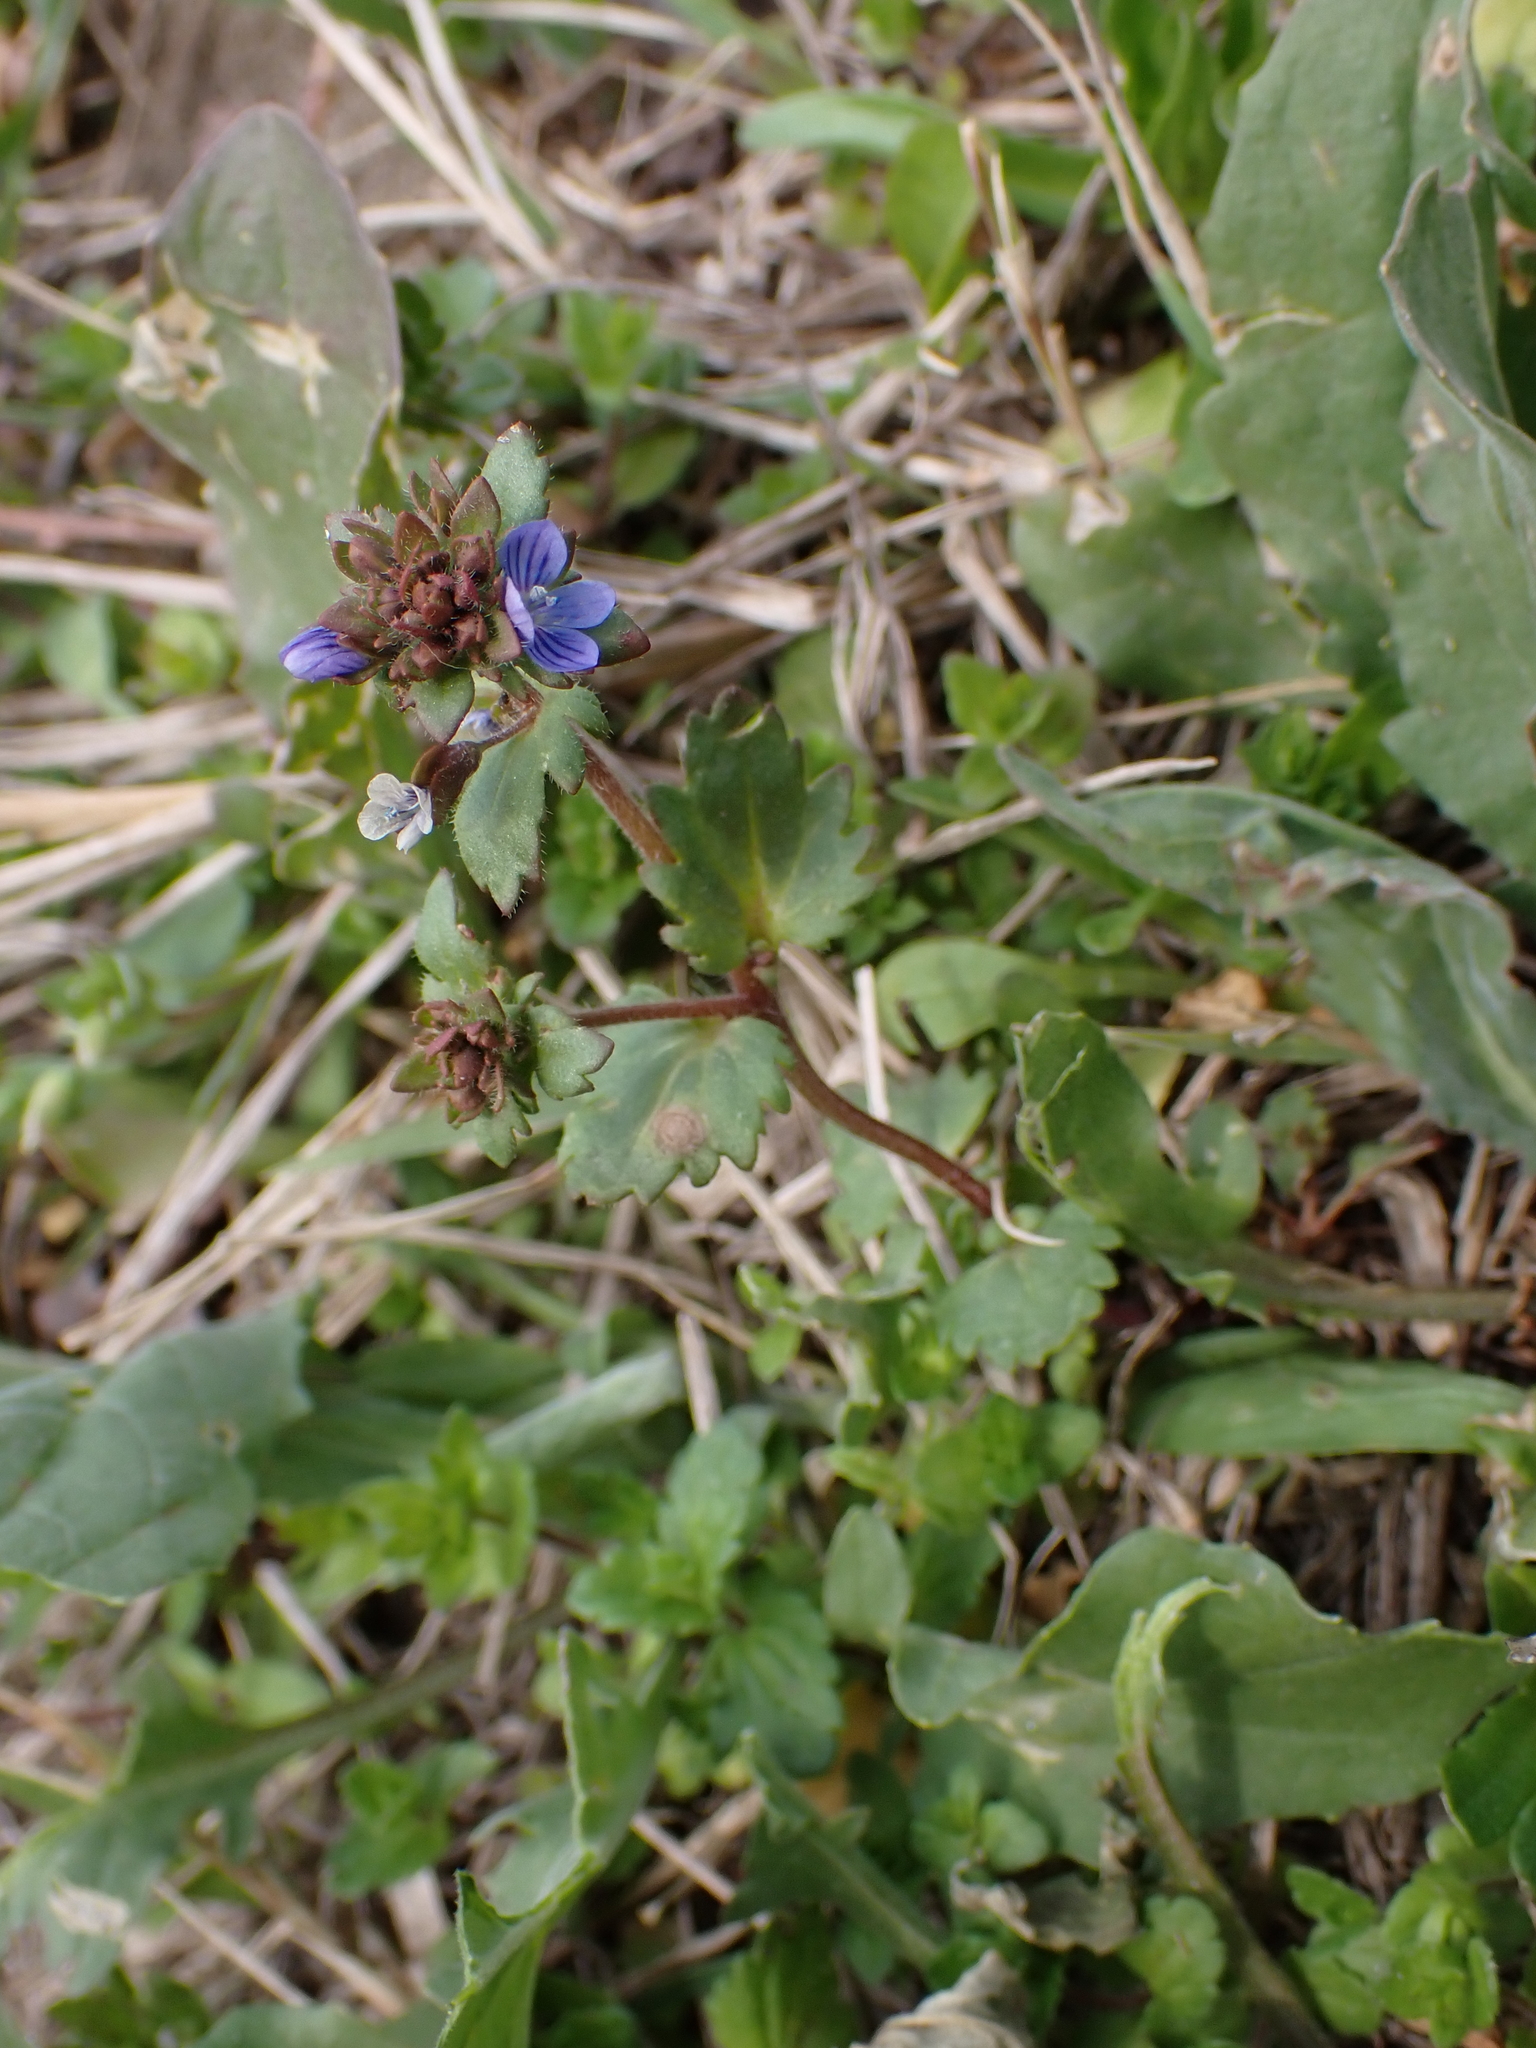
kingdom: Plantae
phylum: Tracheophyta
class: Magnoliopsida
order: Lamiales
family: Plantaginaceae
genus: Veronica
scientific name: Veronica praecox
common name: Breckland speedwell
